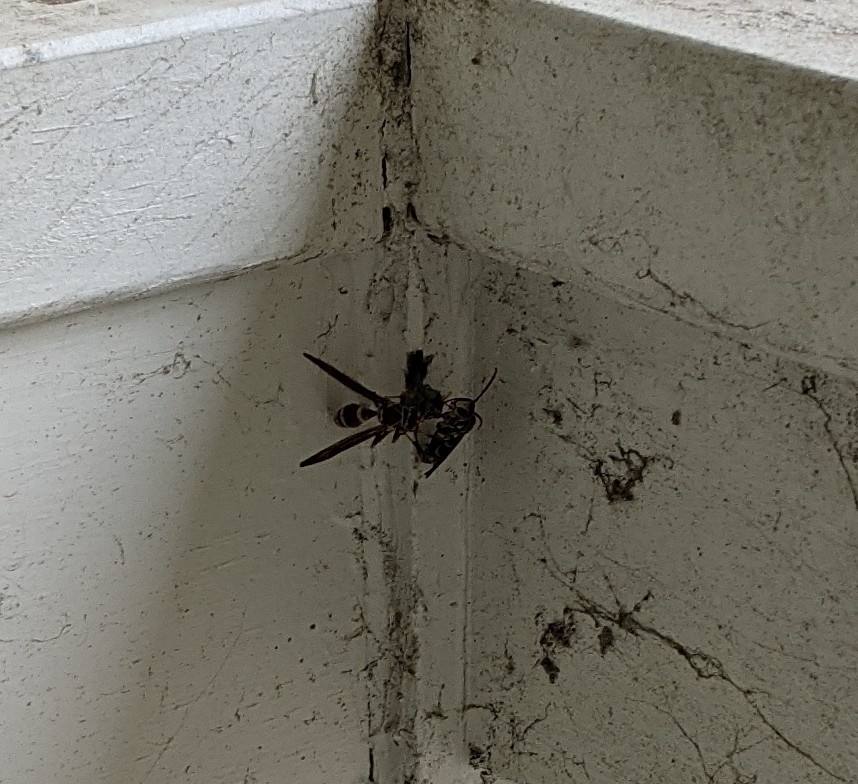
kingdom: Animalia
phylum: Arthropoda
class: Insecta
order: Hymenoptera
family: Eumenidae
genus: Polistes
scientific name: Polistes exclamans
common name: Paper wasp
